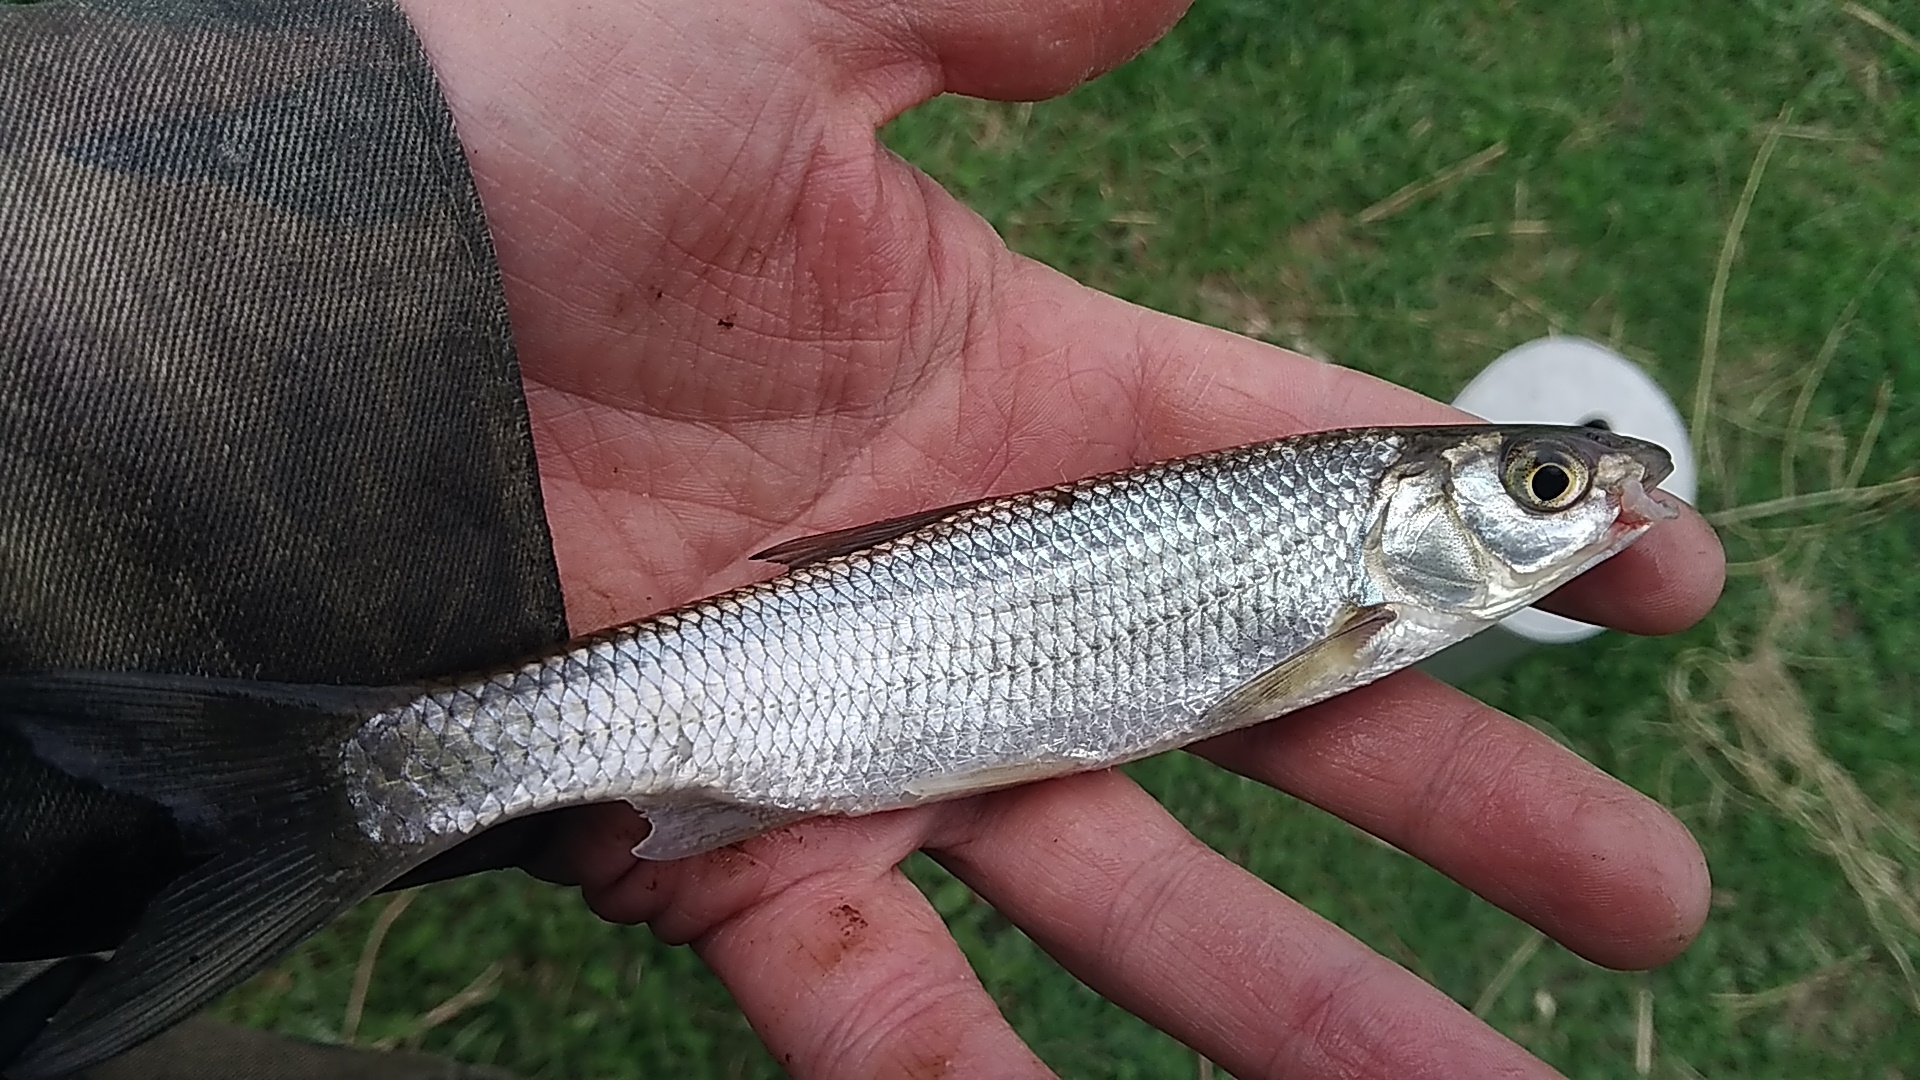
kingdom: Animalia
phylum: Chordata
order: Cypriniformes
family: Cyprinidae
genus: Leuciscus
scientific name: Leuciscus leuciscus
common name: Dace
